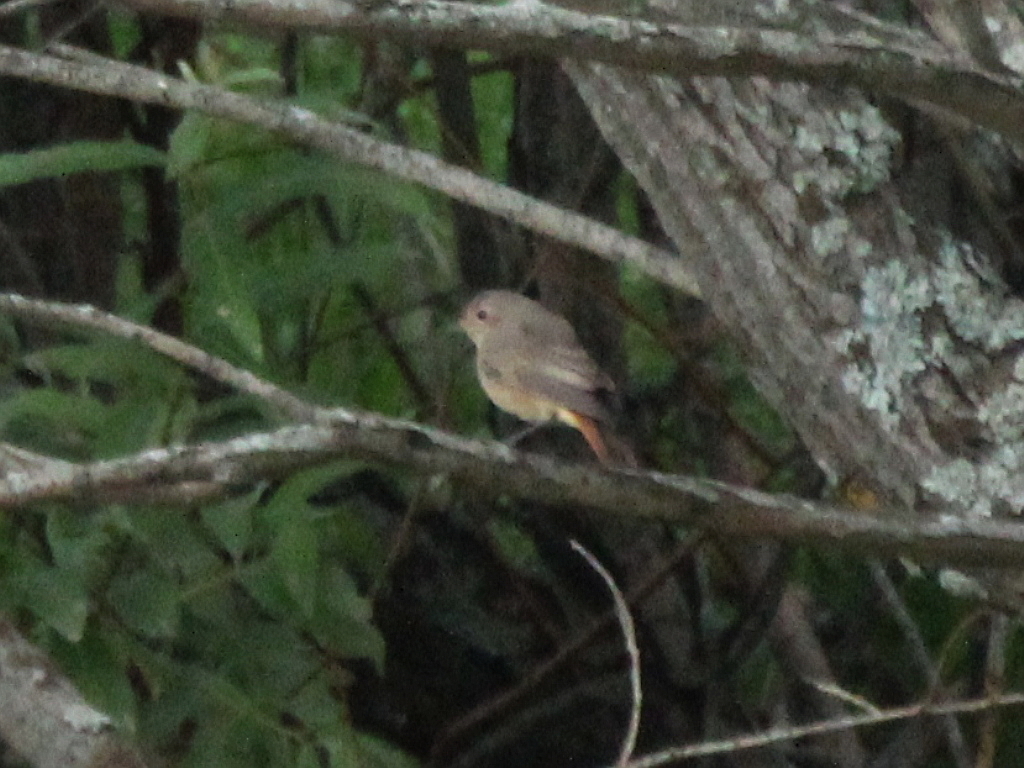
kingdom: Animalia
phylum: Chordata
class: Aves
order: Passeriformes
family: Muscicapidae
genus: Phoenicurus
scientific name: Phoenicurus phoenicurus
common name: Common redstart
